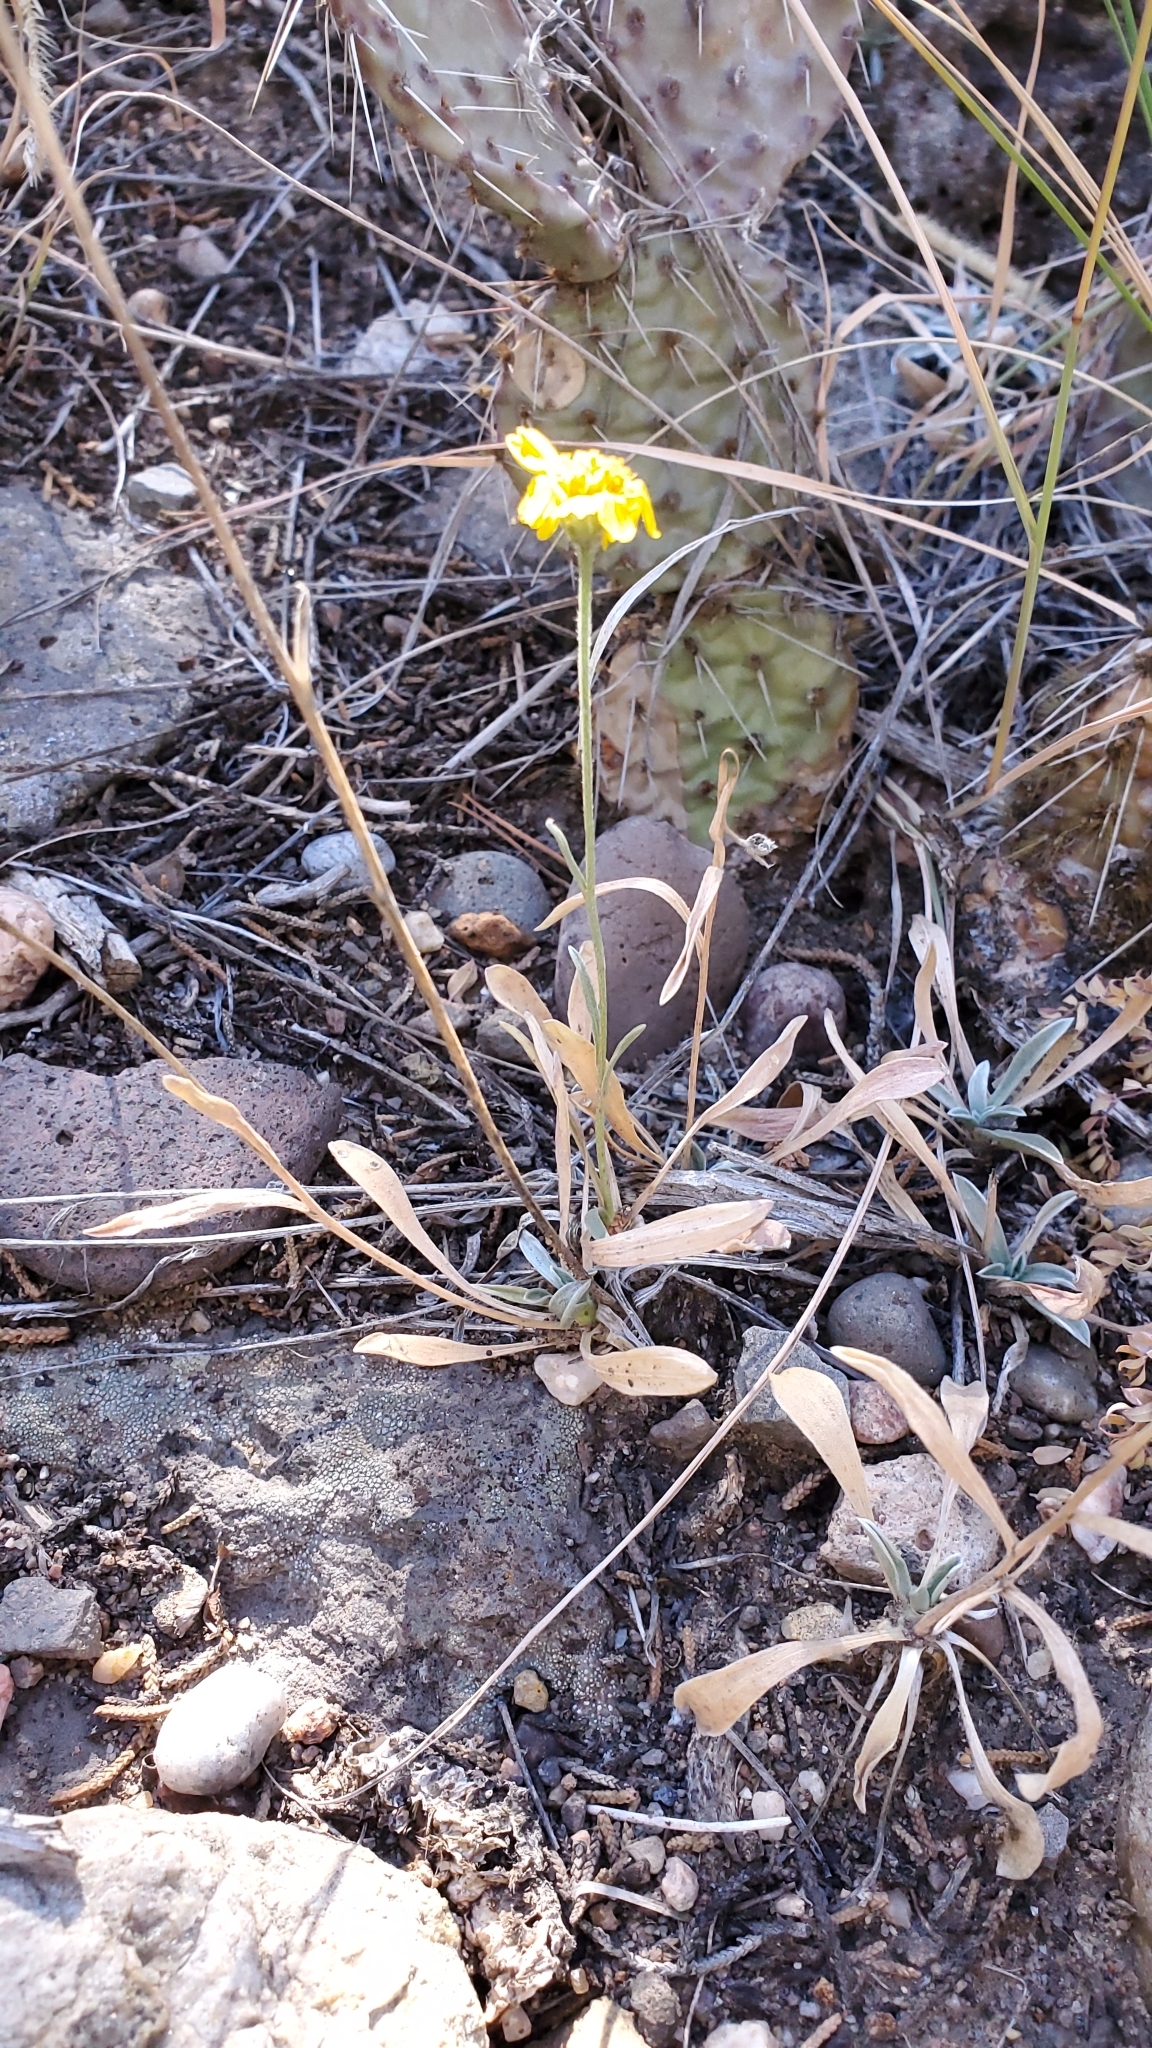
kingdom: Plantae
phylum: Tracheophyta
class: Magnoliopsida
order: Asterales
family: Asteraceae
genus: Tetraneuris
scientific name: Tetraneuris argentea
